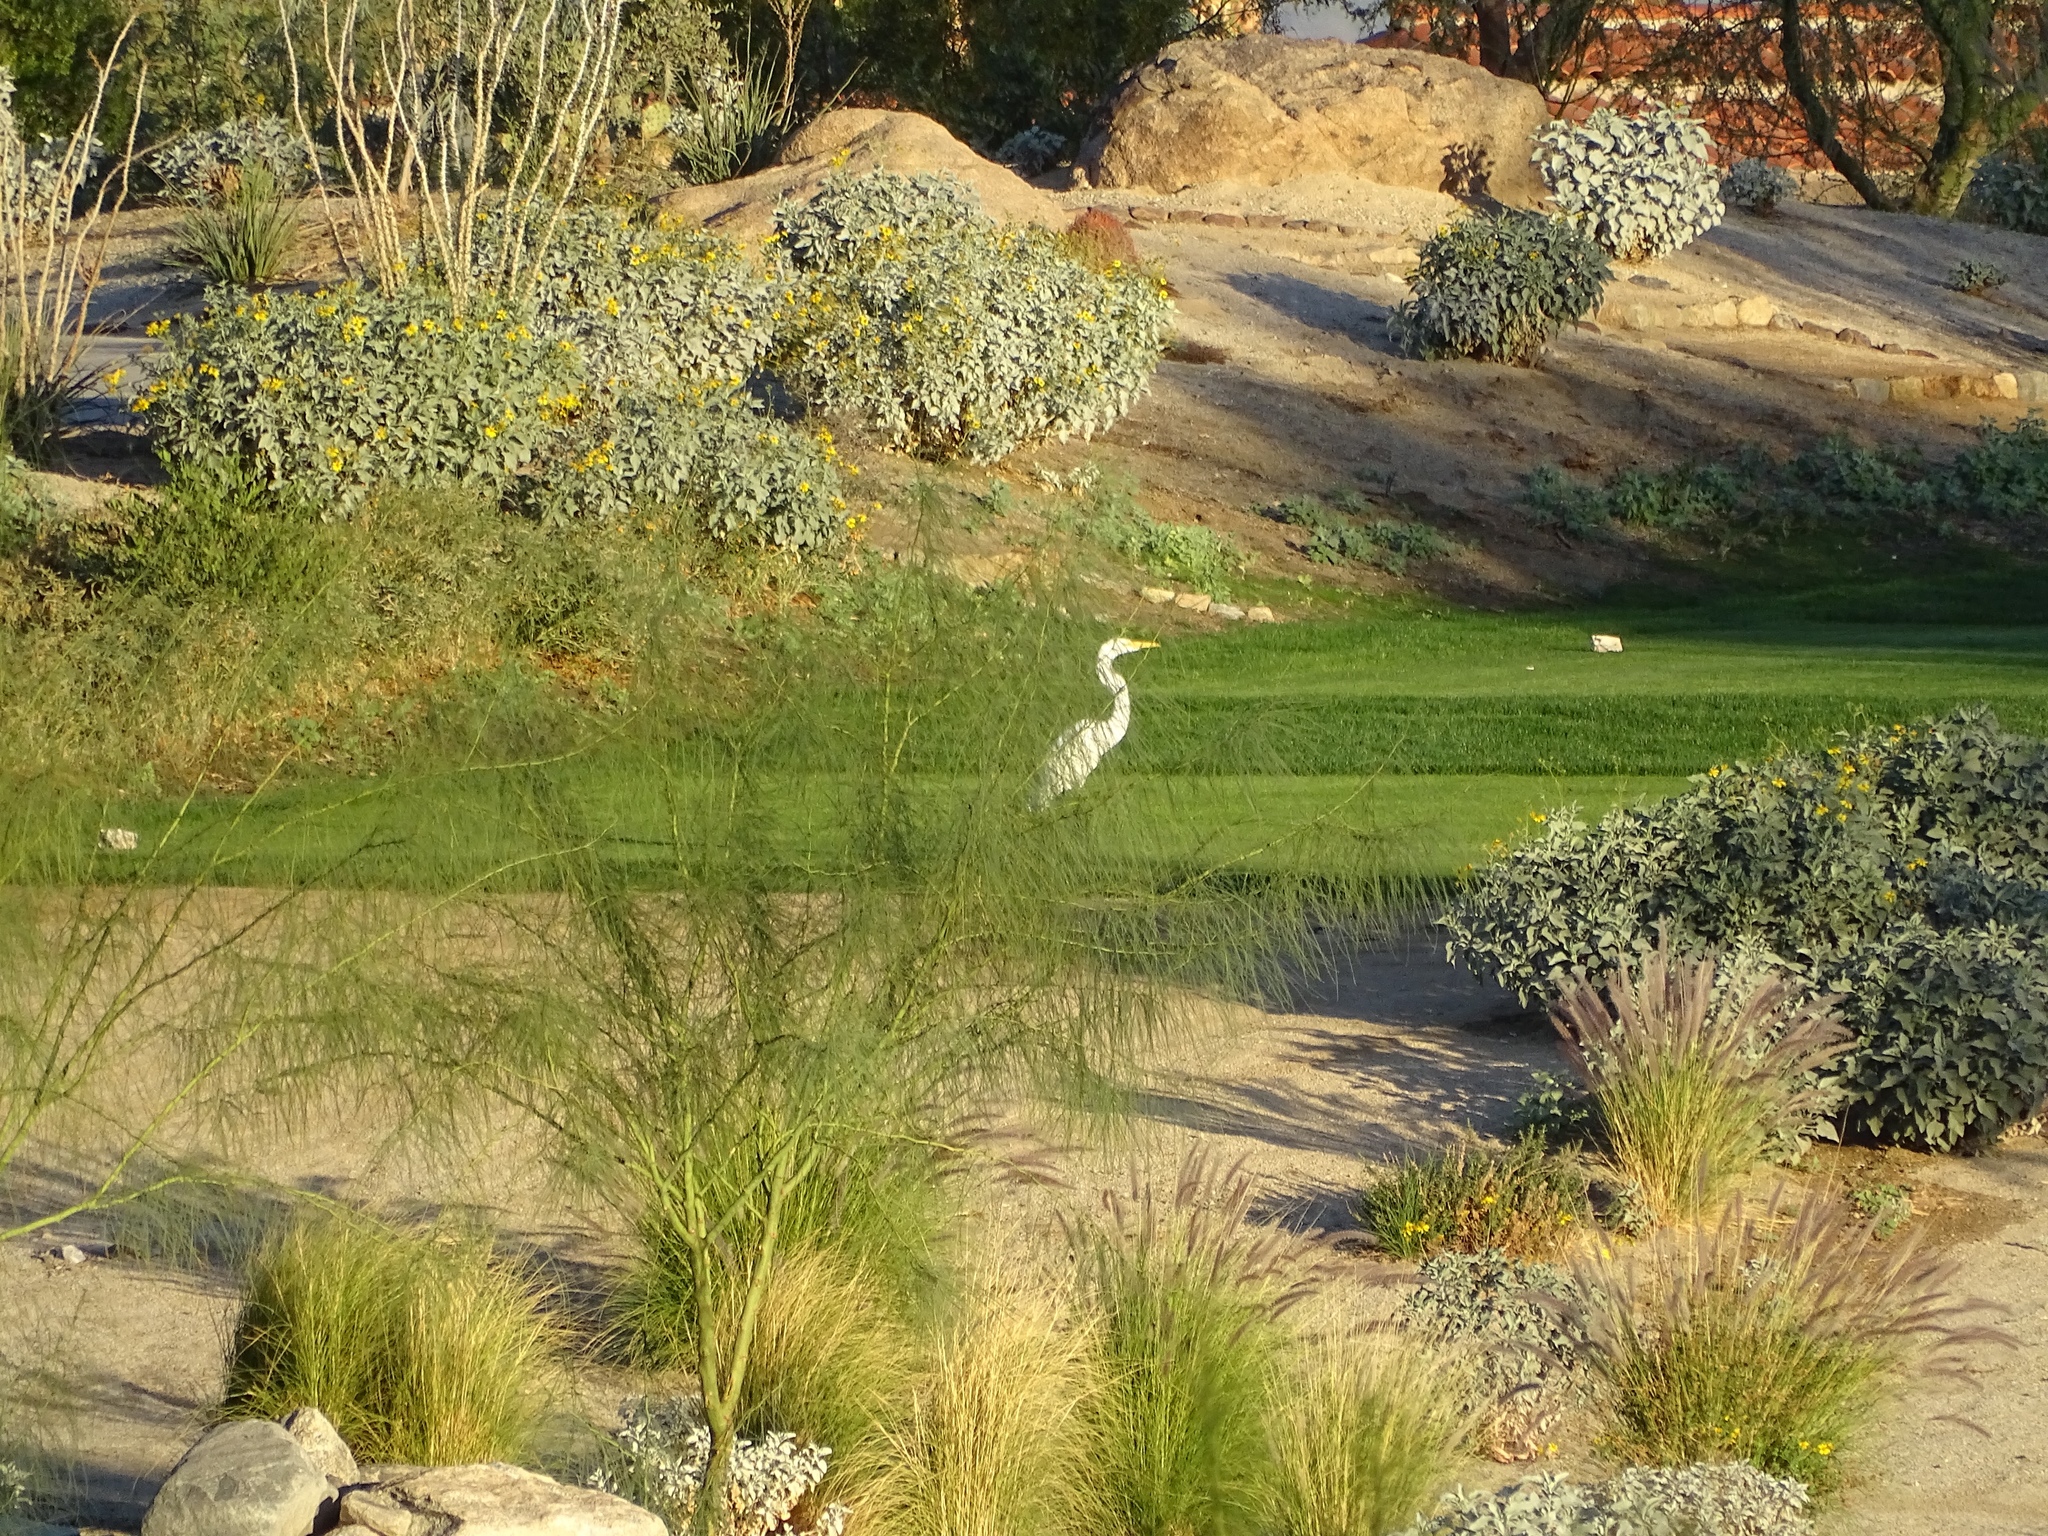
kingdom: Animalia
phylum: Chordata
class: Aves
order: Pelecaniformes
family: Ardeidae
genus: Ardea
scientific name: Ardea alba
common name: Great egret
